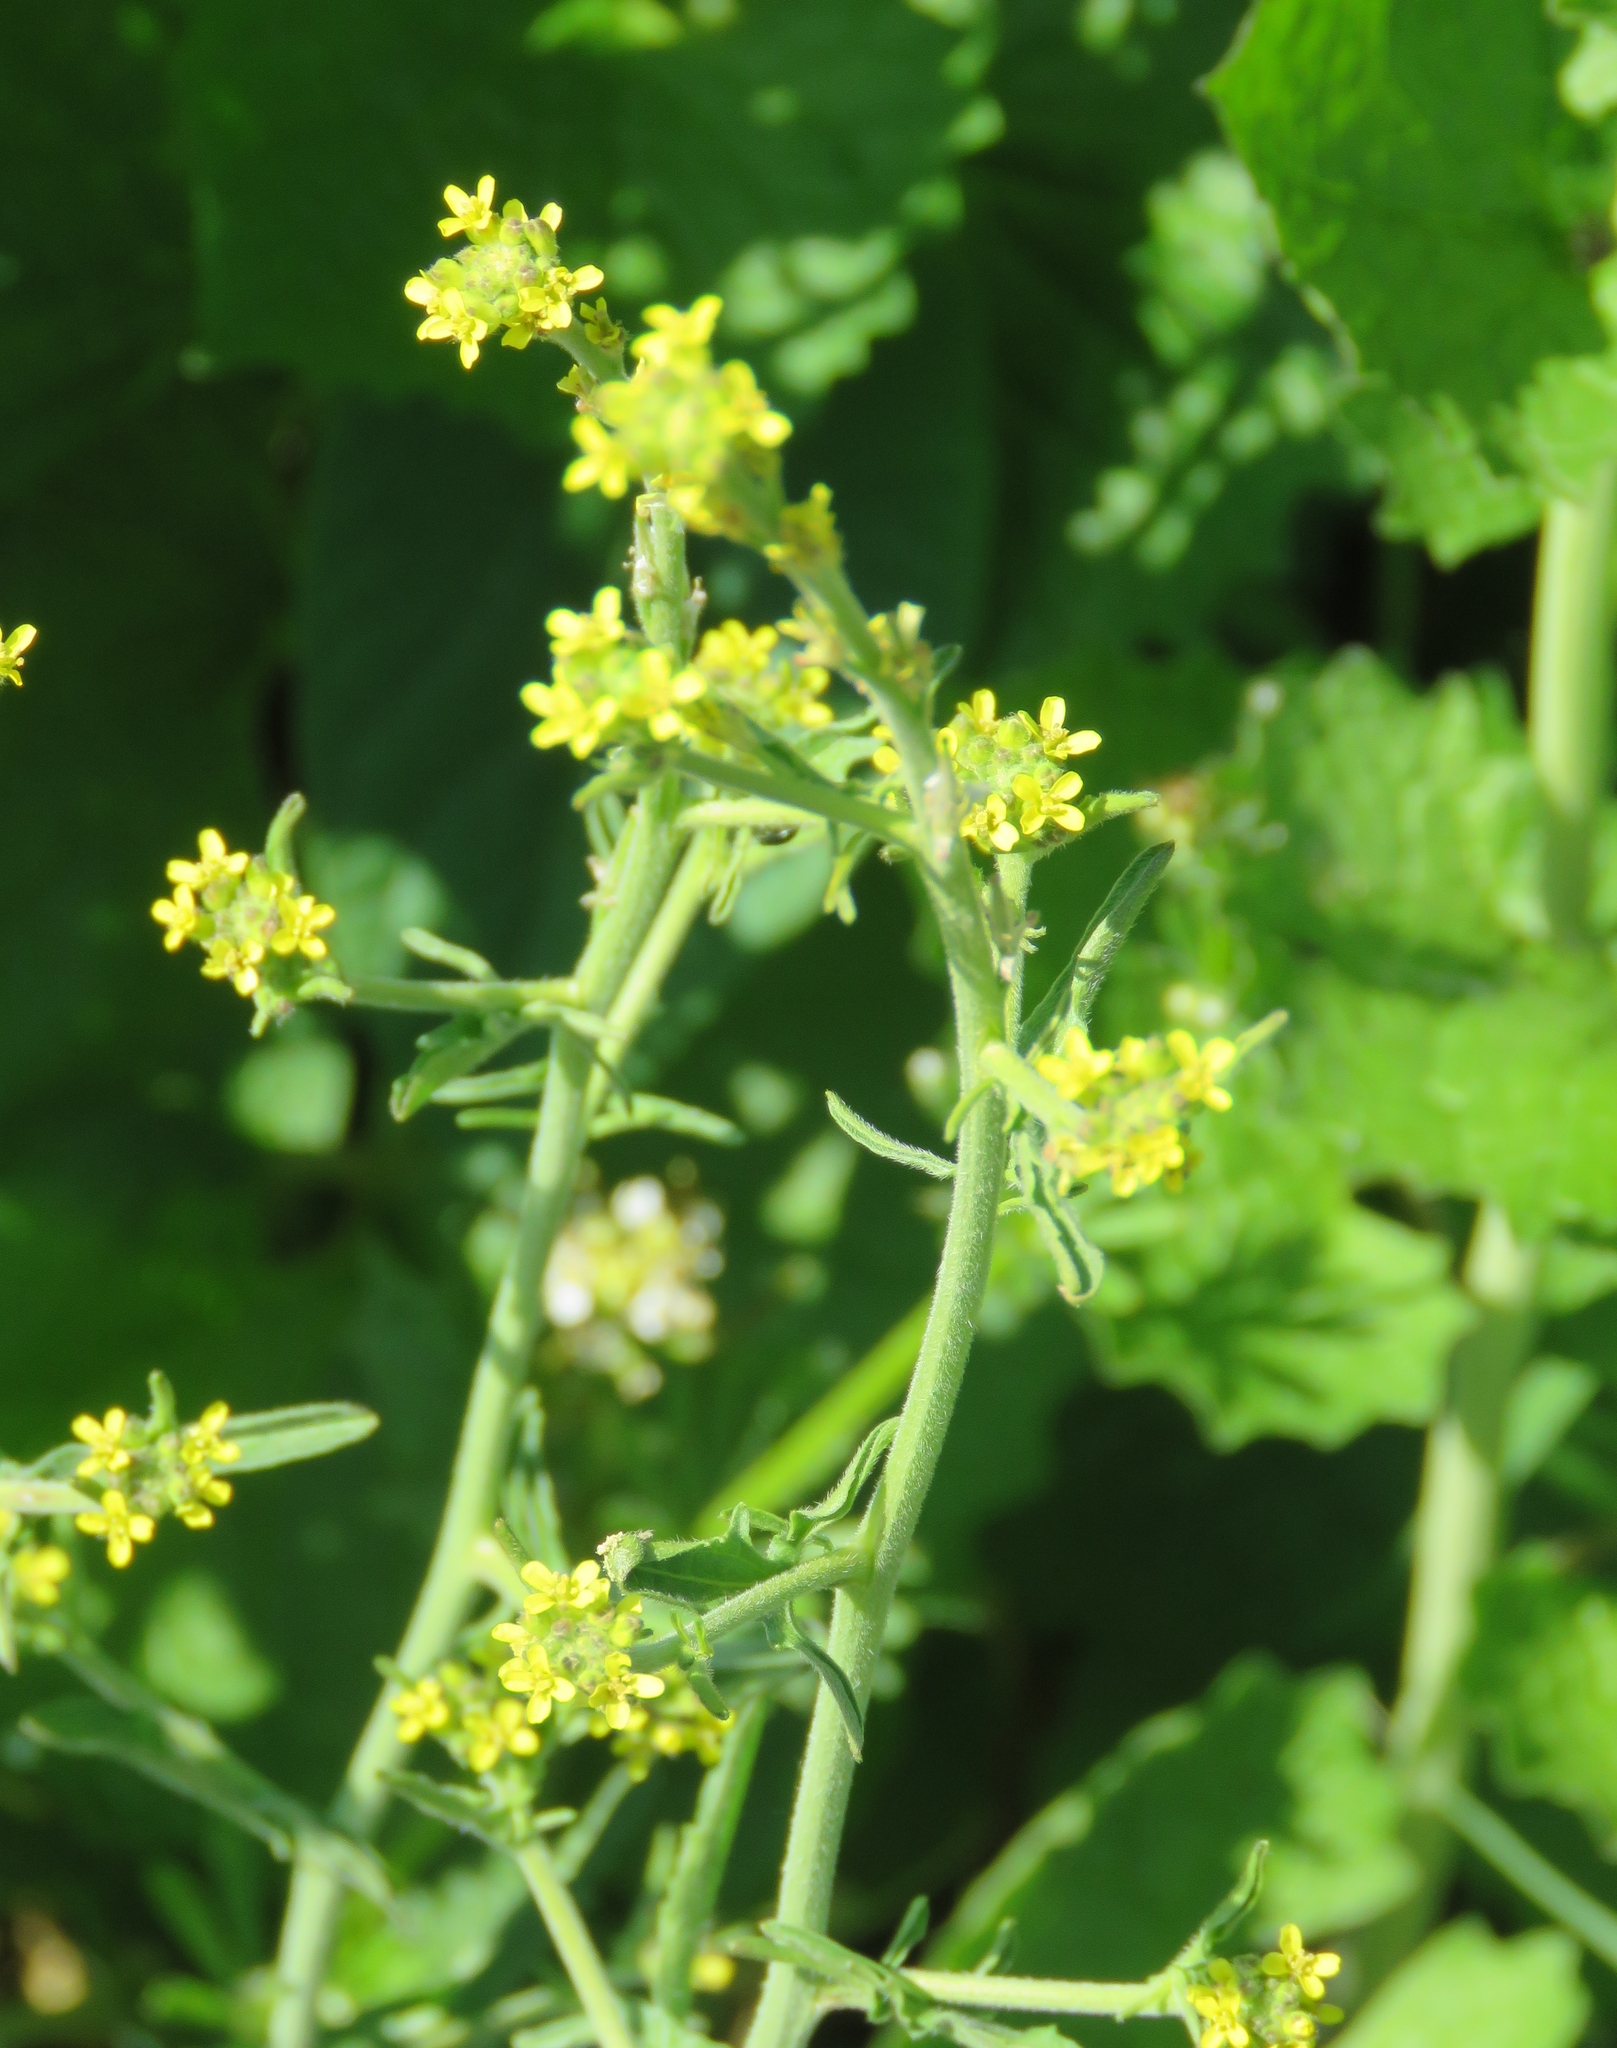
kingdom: Plantae
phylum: Tracheophyta
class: Magnoliopsida
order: Brassicales
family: Brassicaceae
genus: Sisymbrium
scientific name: Sisymbrium officinale
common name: Hedge mustard
